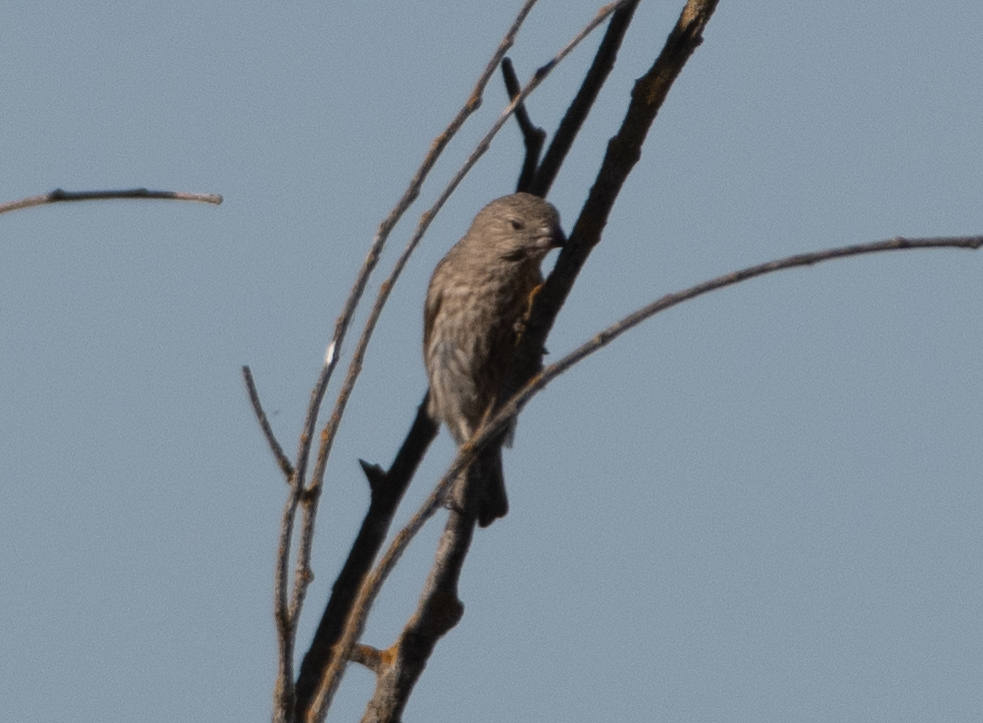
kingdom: Animalia
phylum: Chordata
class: Aves
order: Passeriformes
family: Fringillidae
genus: Haemorhous
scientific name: Haemorhous mexicanus
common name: House finch
